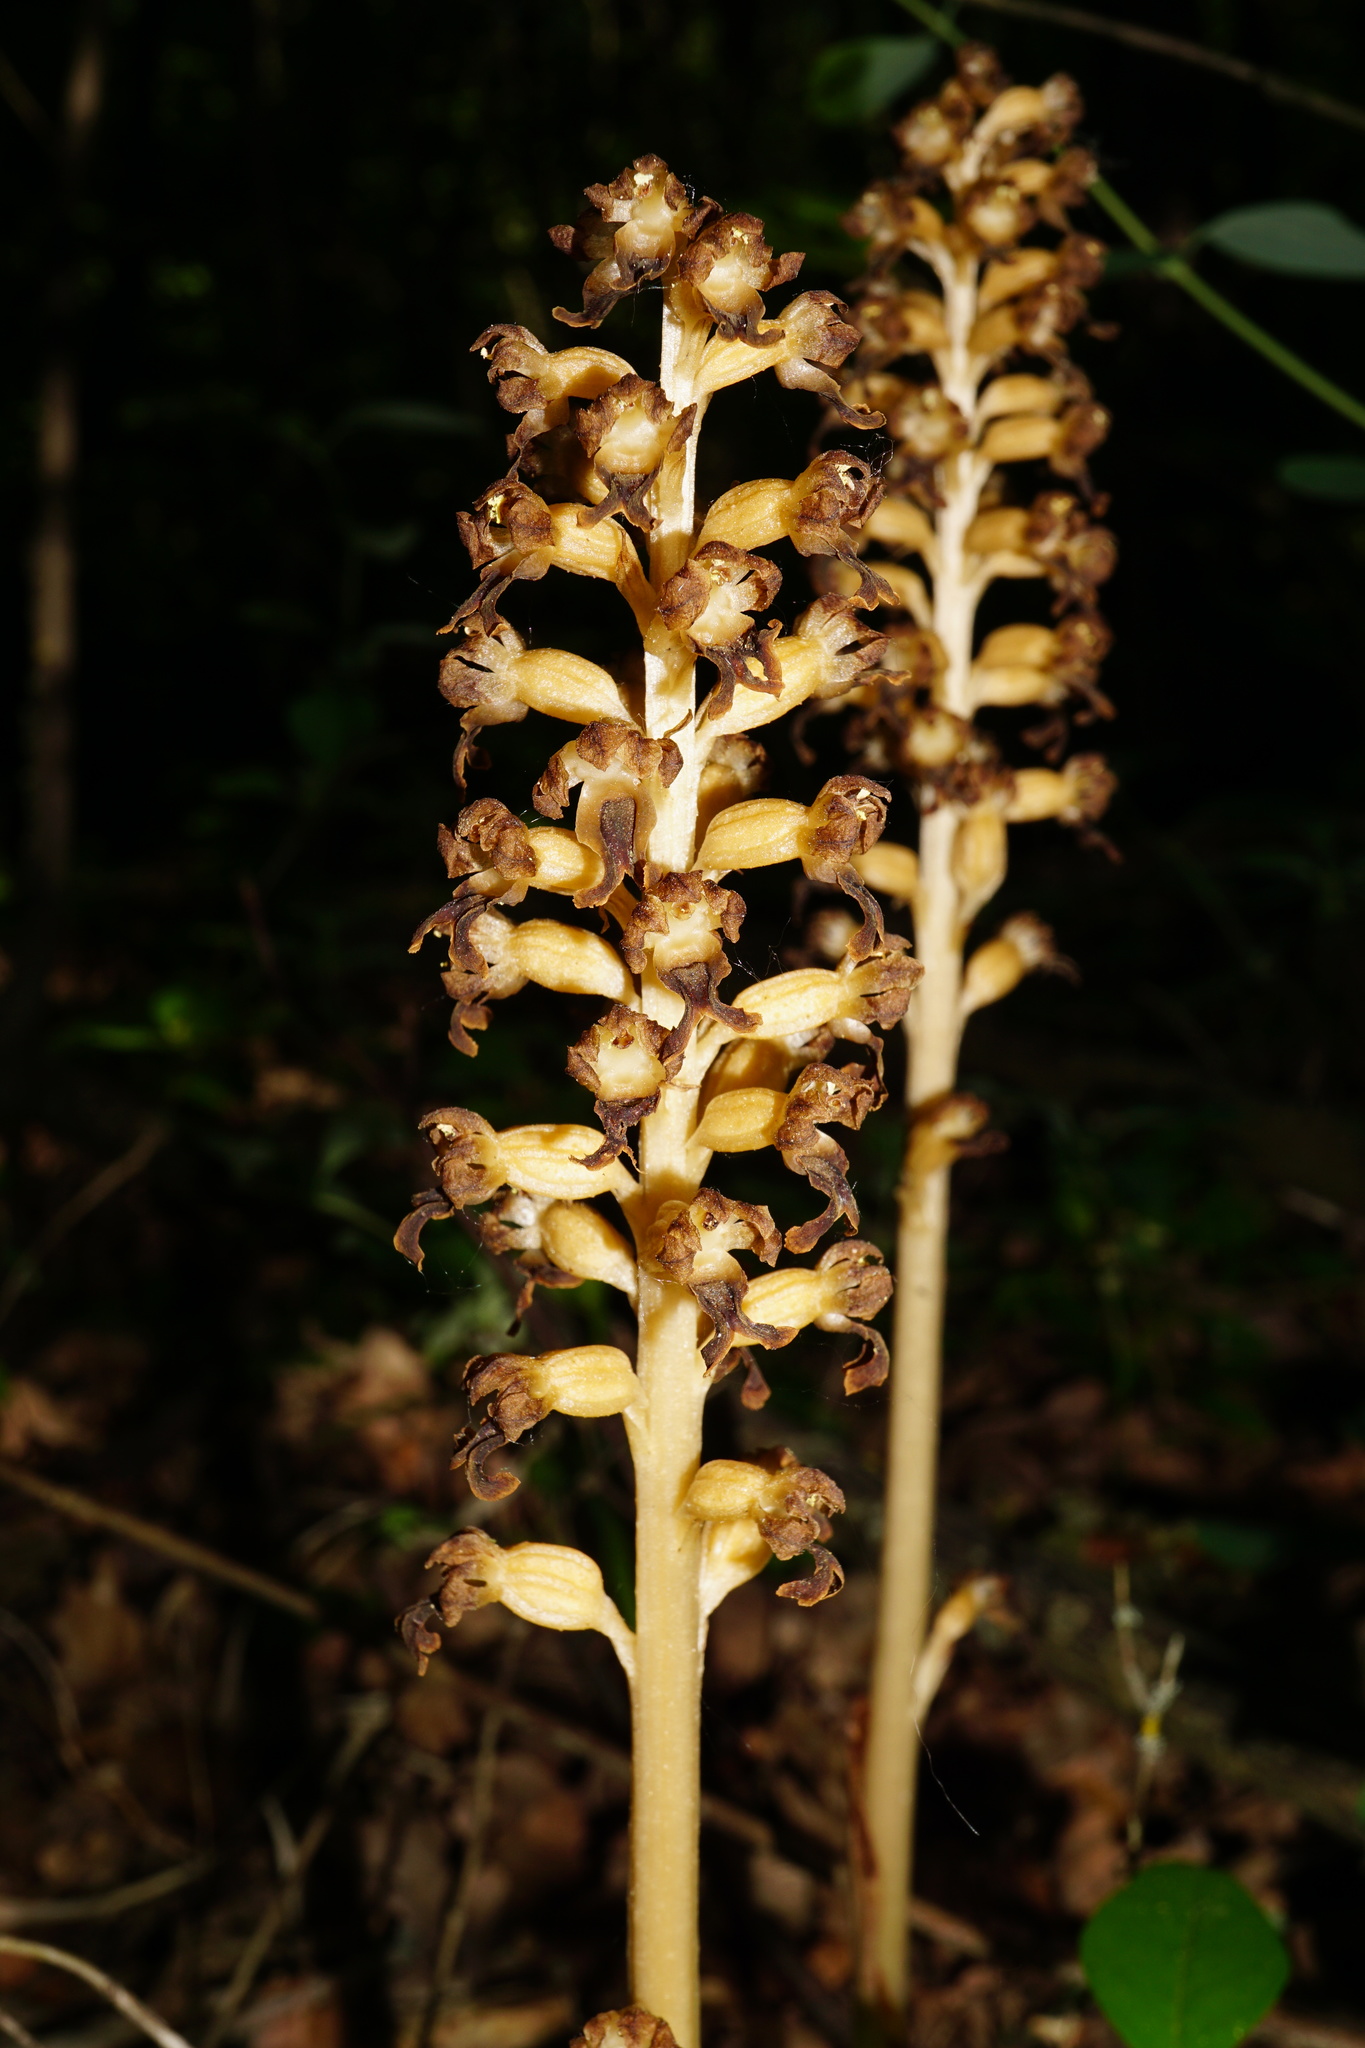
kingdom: Plantae
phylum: Tracheophyta
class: Liliopsida
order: Asparagales
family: Orchidaceae
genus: Neottia
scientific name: Neottia nidus-avis
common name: Bird's-nest orchid
